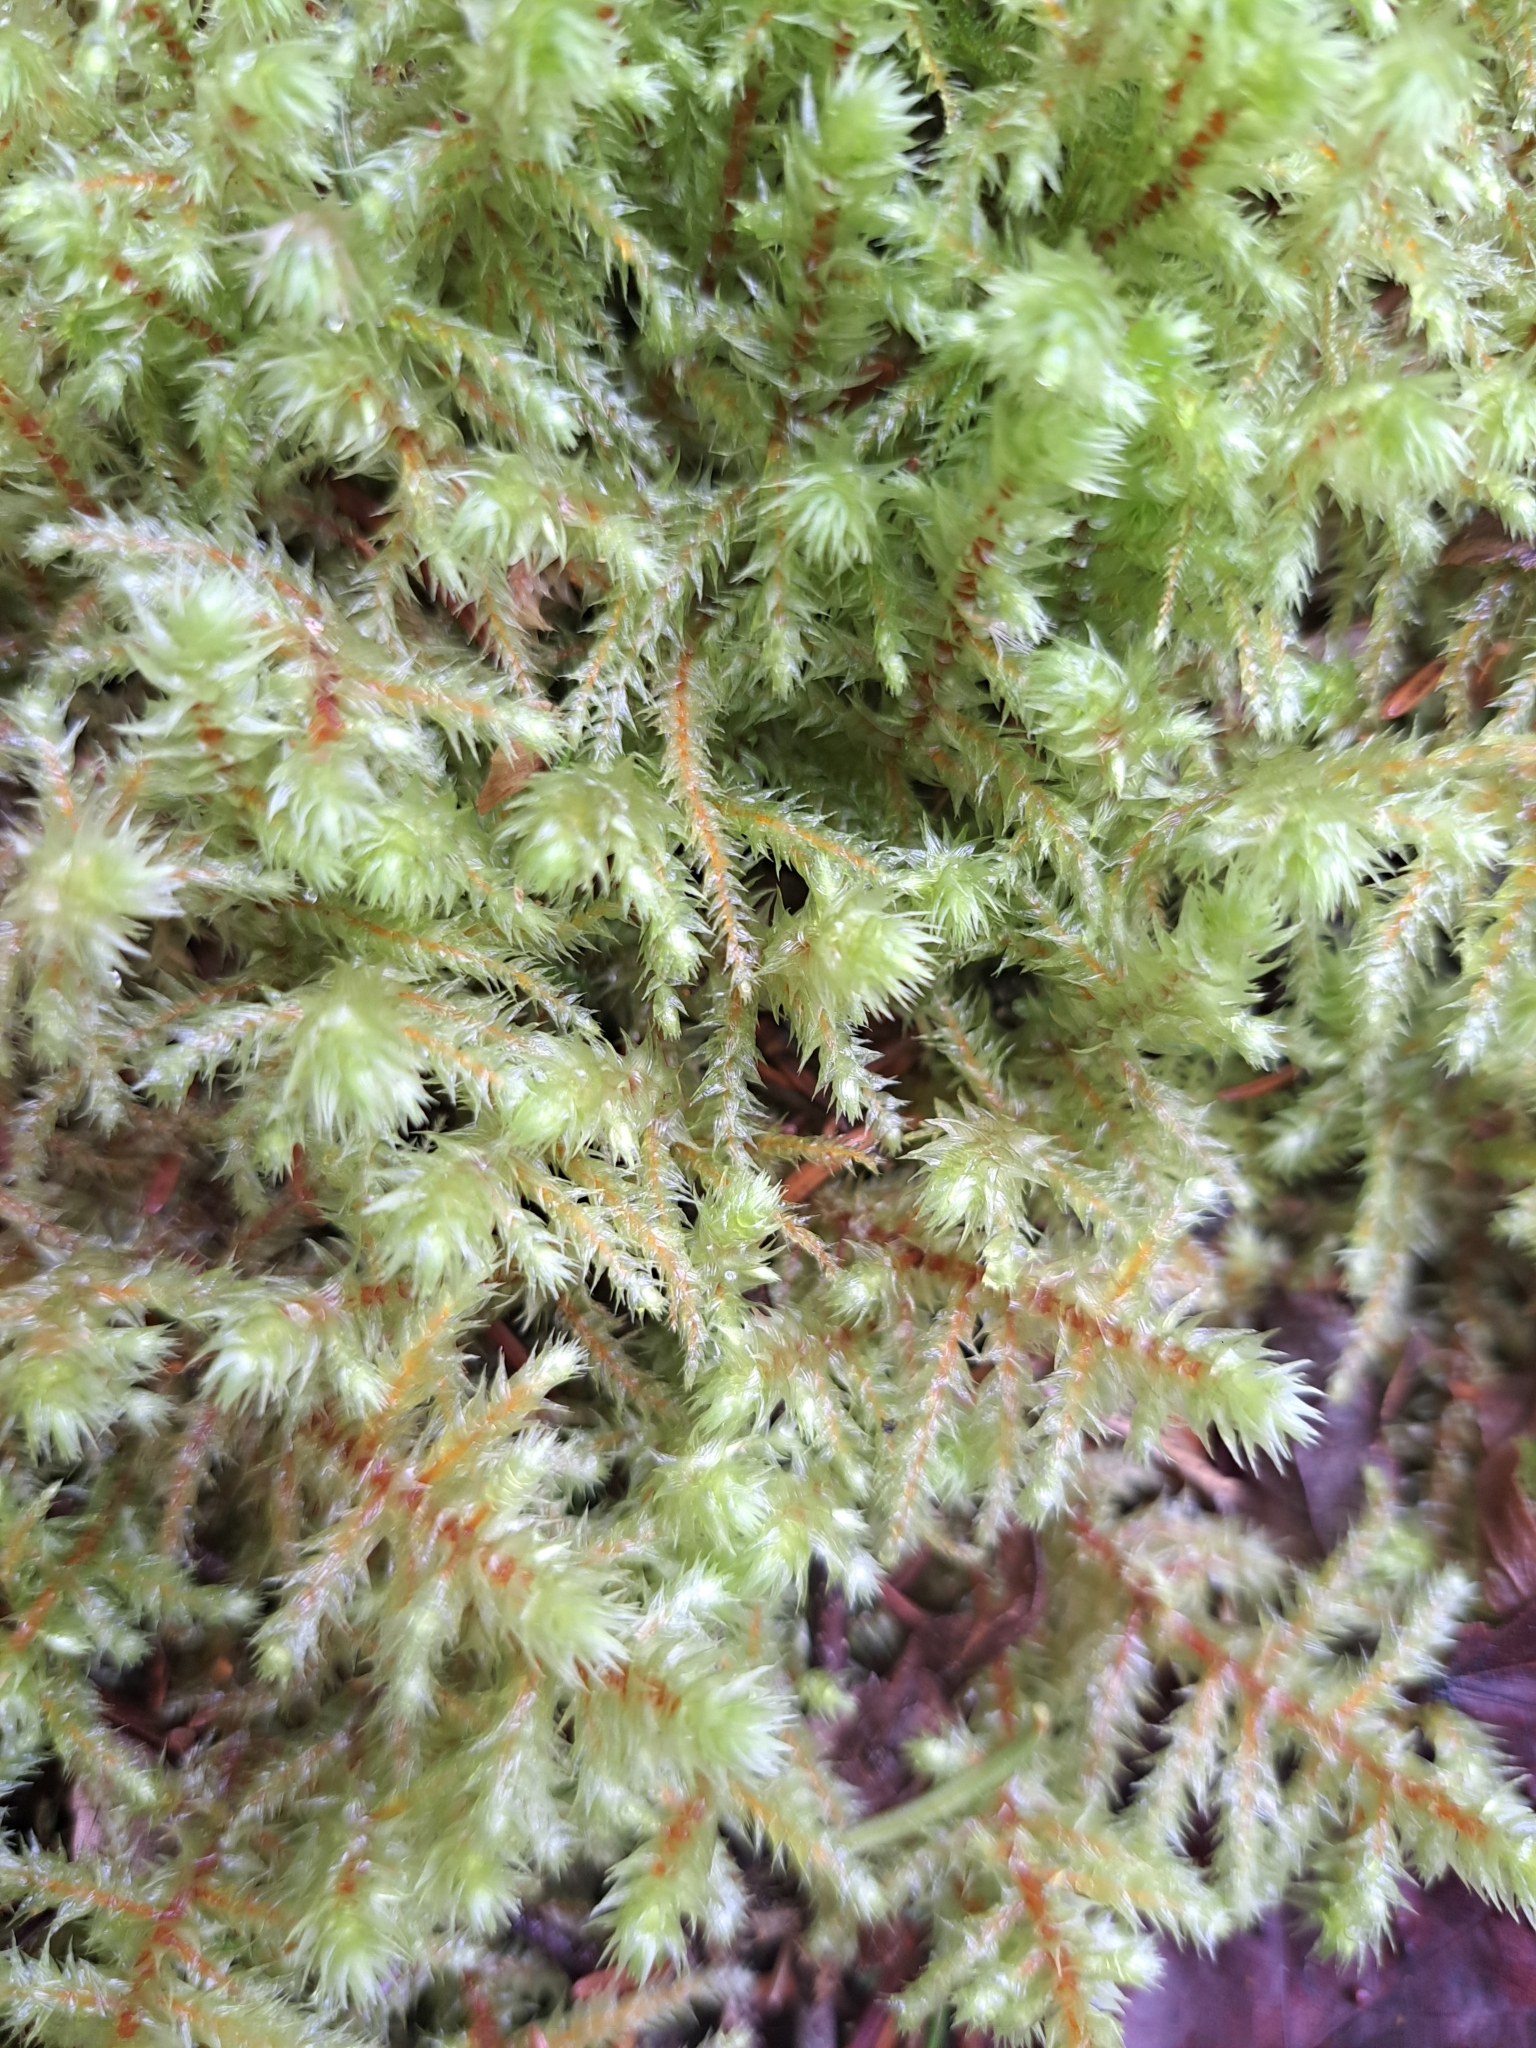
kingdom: Plantae
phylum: Bryophyta
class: Bryopsida
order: Hypnales
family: Hylocomiaceae
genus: Hylocomiadelphus
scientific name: Hylocomiadelphus triquetrus
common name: Rough goose neck moss
